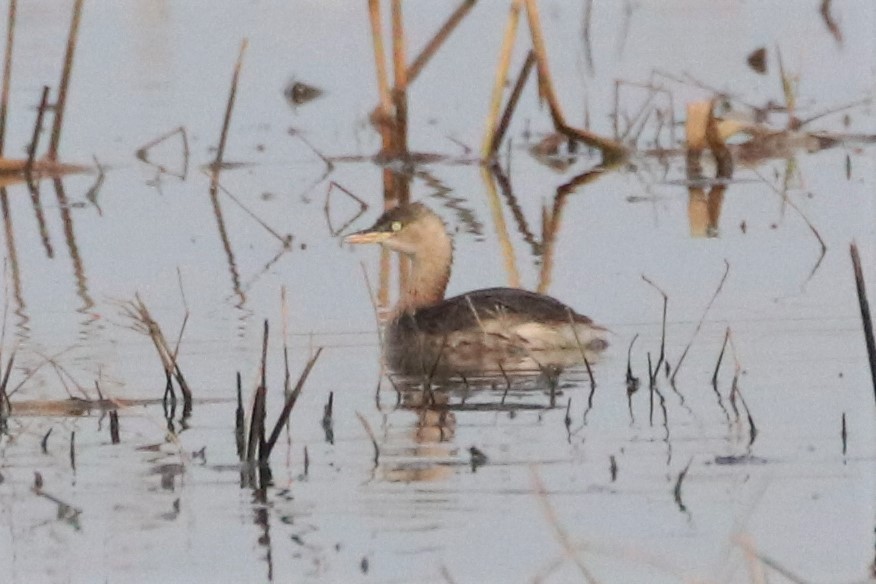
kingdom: Animalia
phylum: Chordata
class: Aves
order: Podicipediformes
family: Podicipedidae
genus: Tachybaptus
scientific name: Tachybaptus ruficollis
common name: Little grebe
